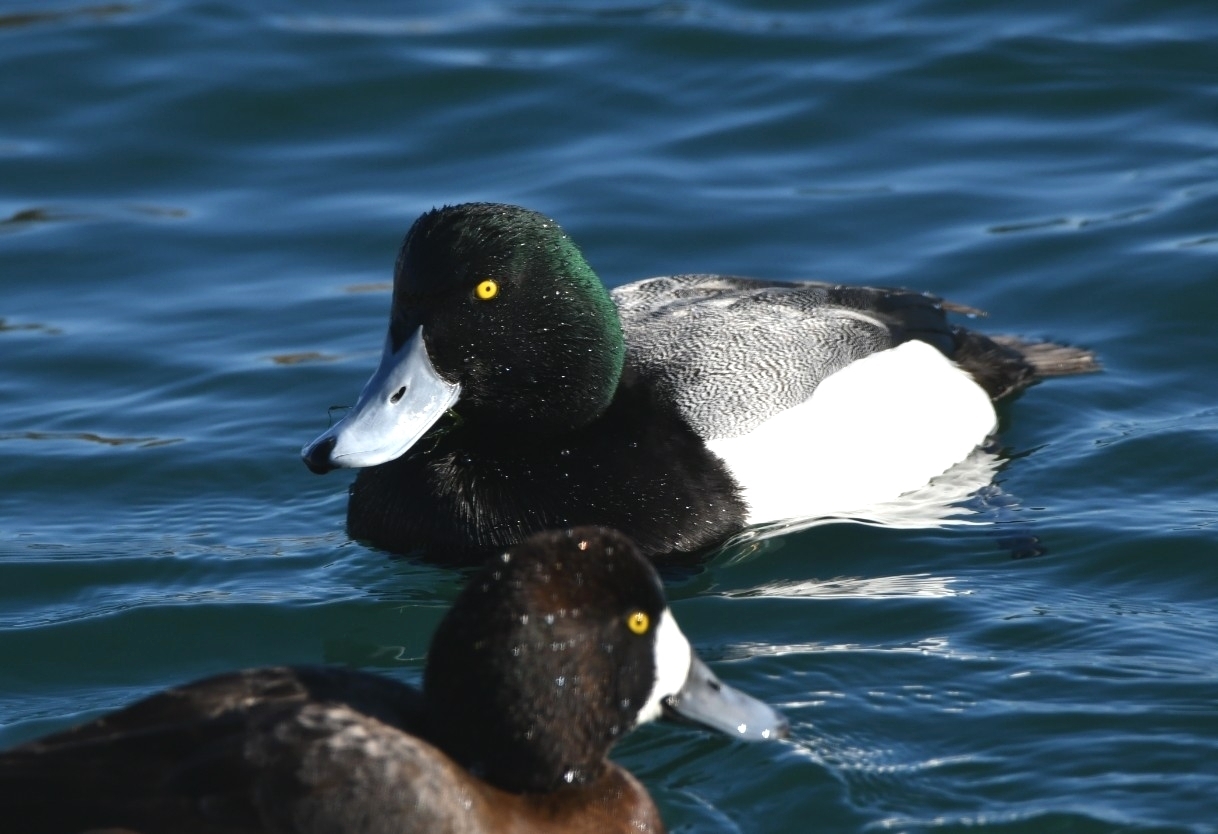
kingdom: Animalia
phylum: Chordata
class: Aves
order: Anseriformes
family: Anatidae
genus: Aythya
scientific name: Aythya marila
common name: Greater scaup
